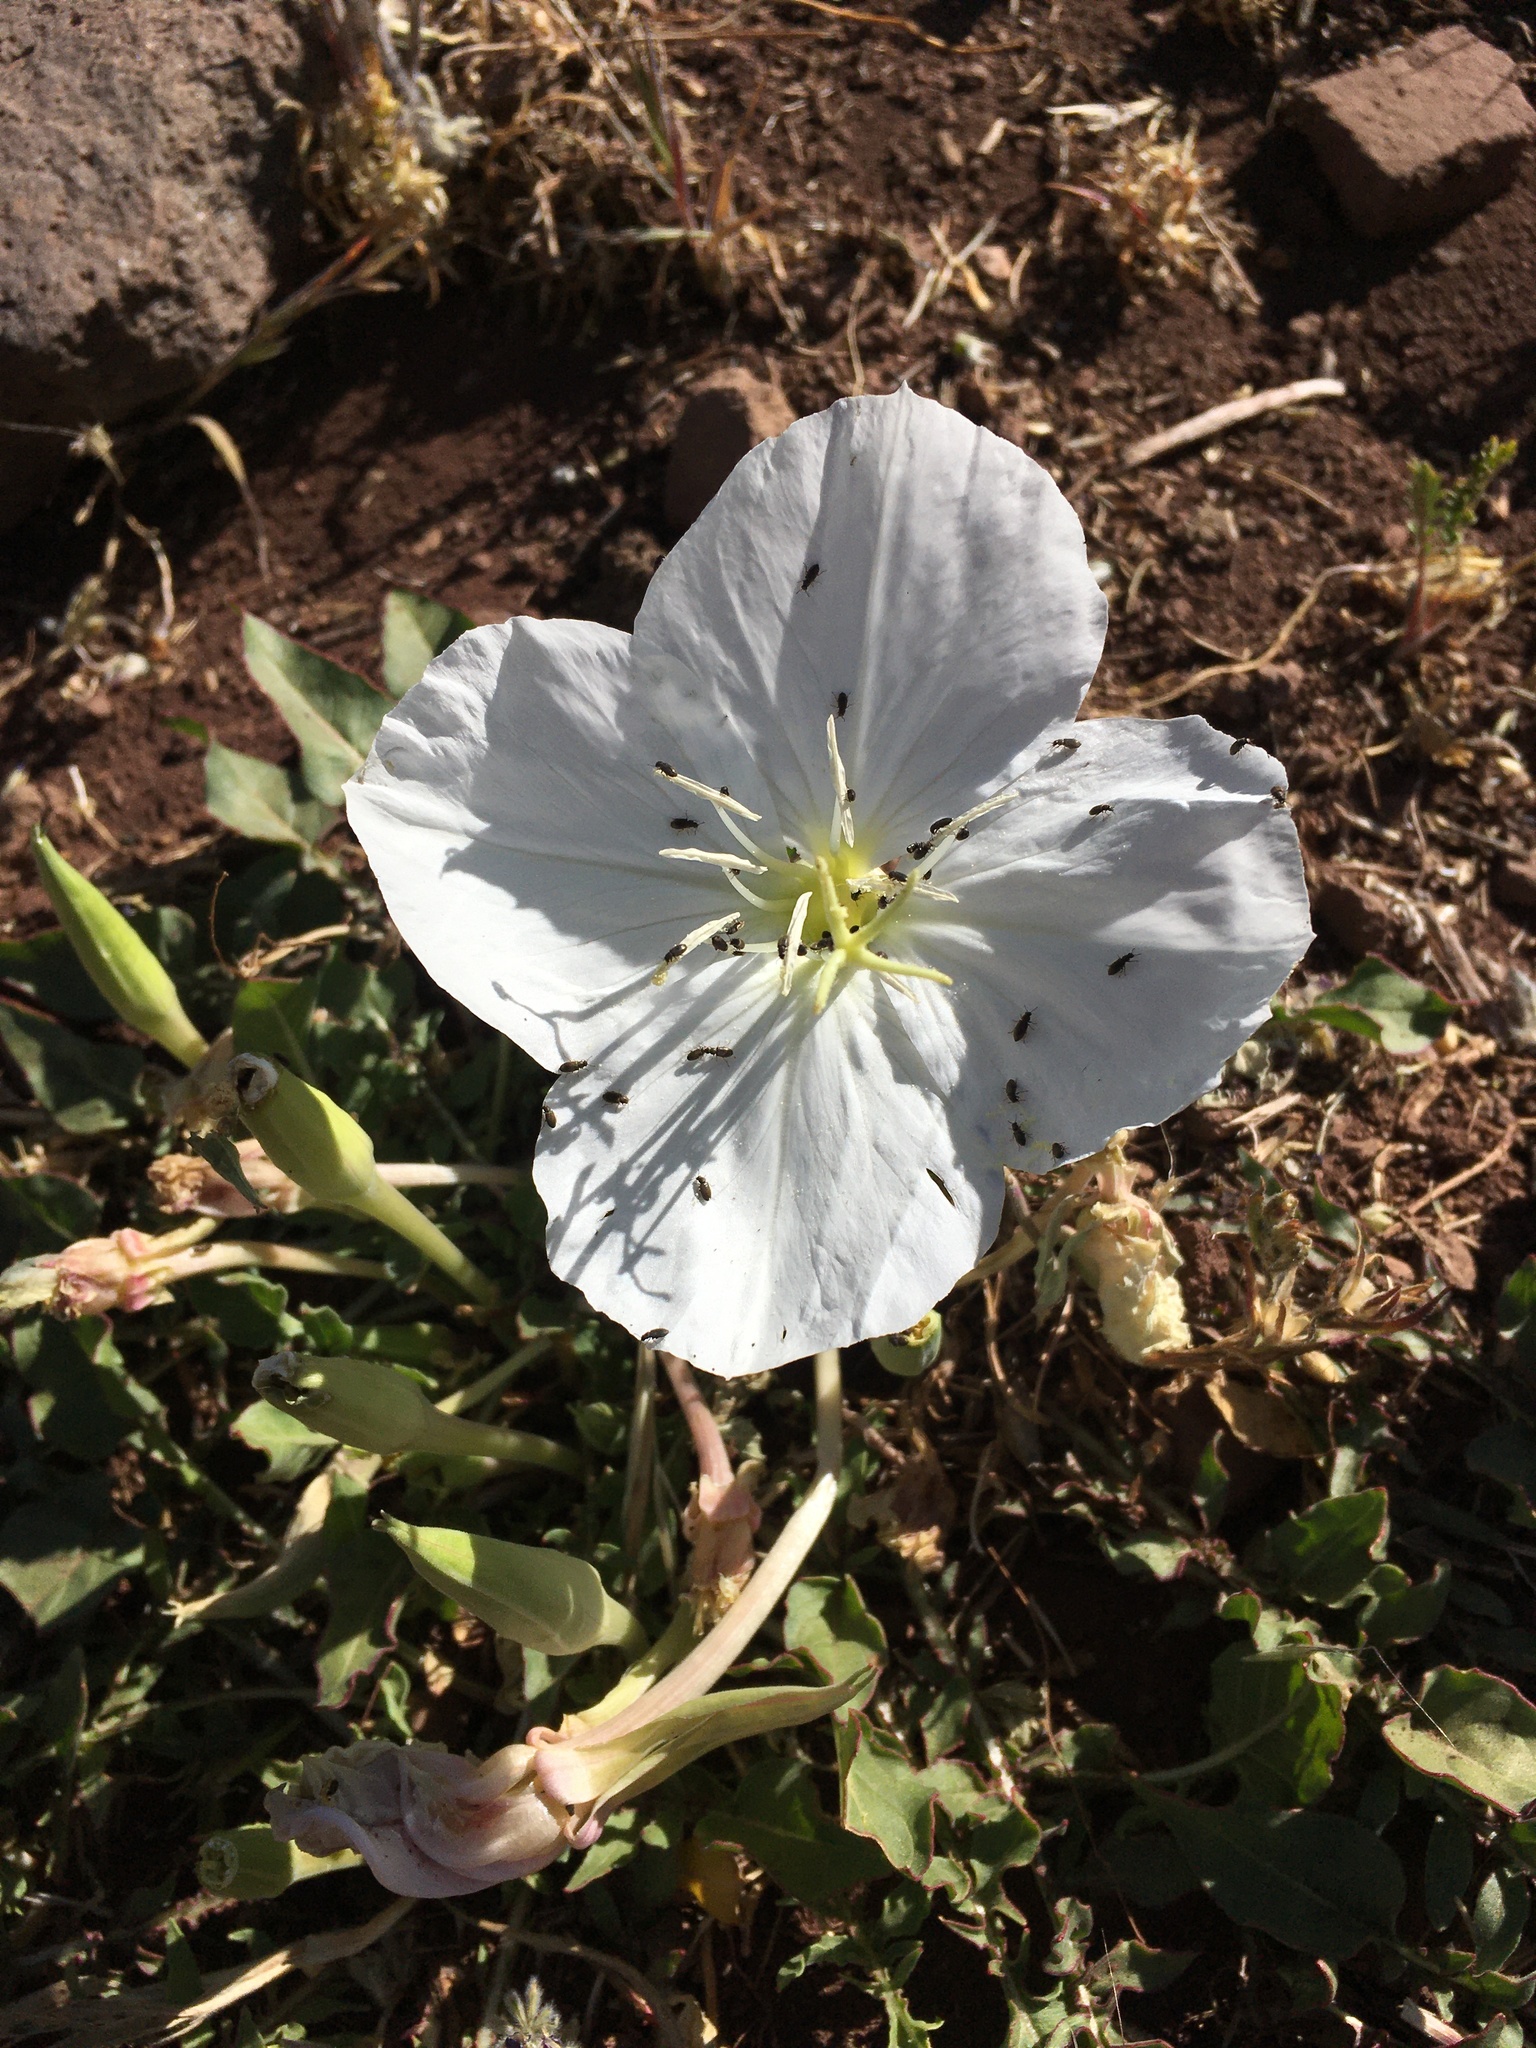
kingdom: Plantae
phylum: Tracheophyta
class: Magnoliopsida
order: Myrtales
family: Onagraceae
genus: Oenothera
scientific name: Oenothera acaulis
